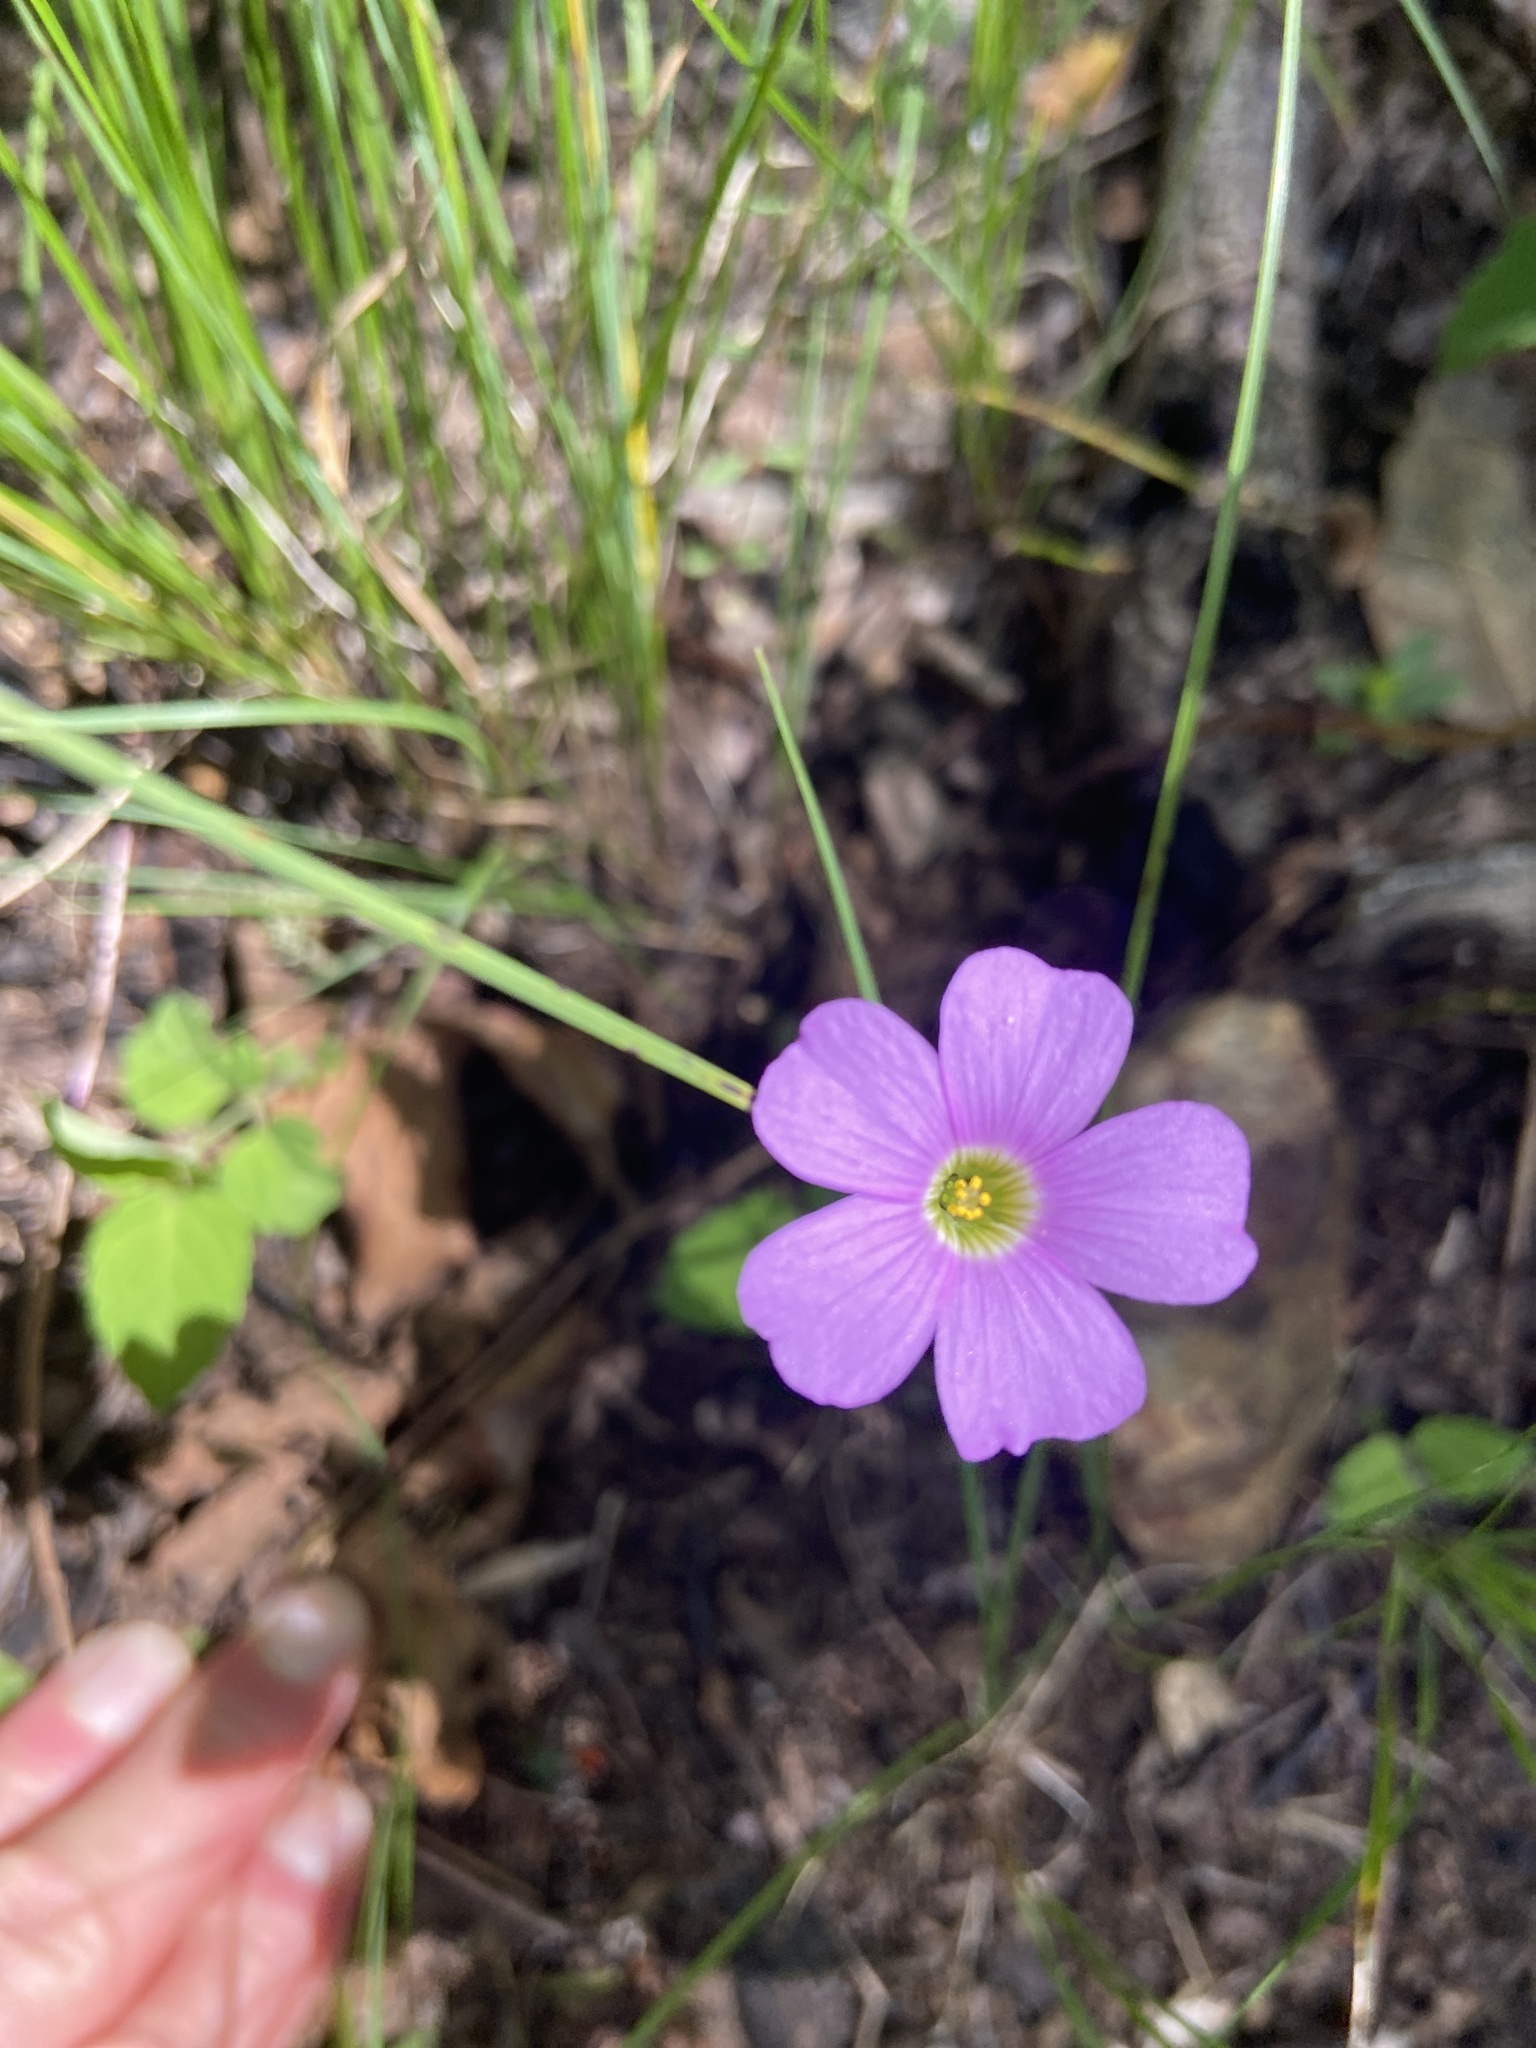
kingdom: Plantae
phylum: Tracheophyta
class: Magnoliopsida
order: Oxalidales
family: Oxalidaceae
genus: Oxalis
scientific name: Oxalis violacea
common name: Violet wood-sorrel
